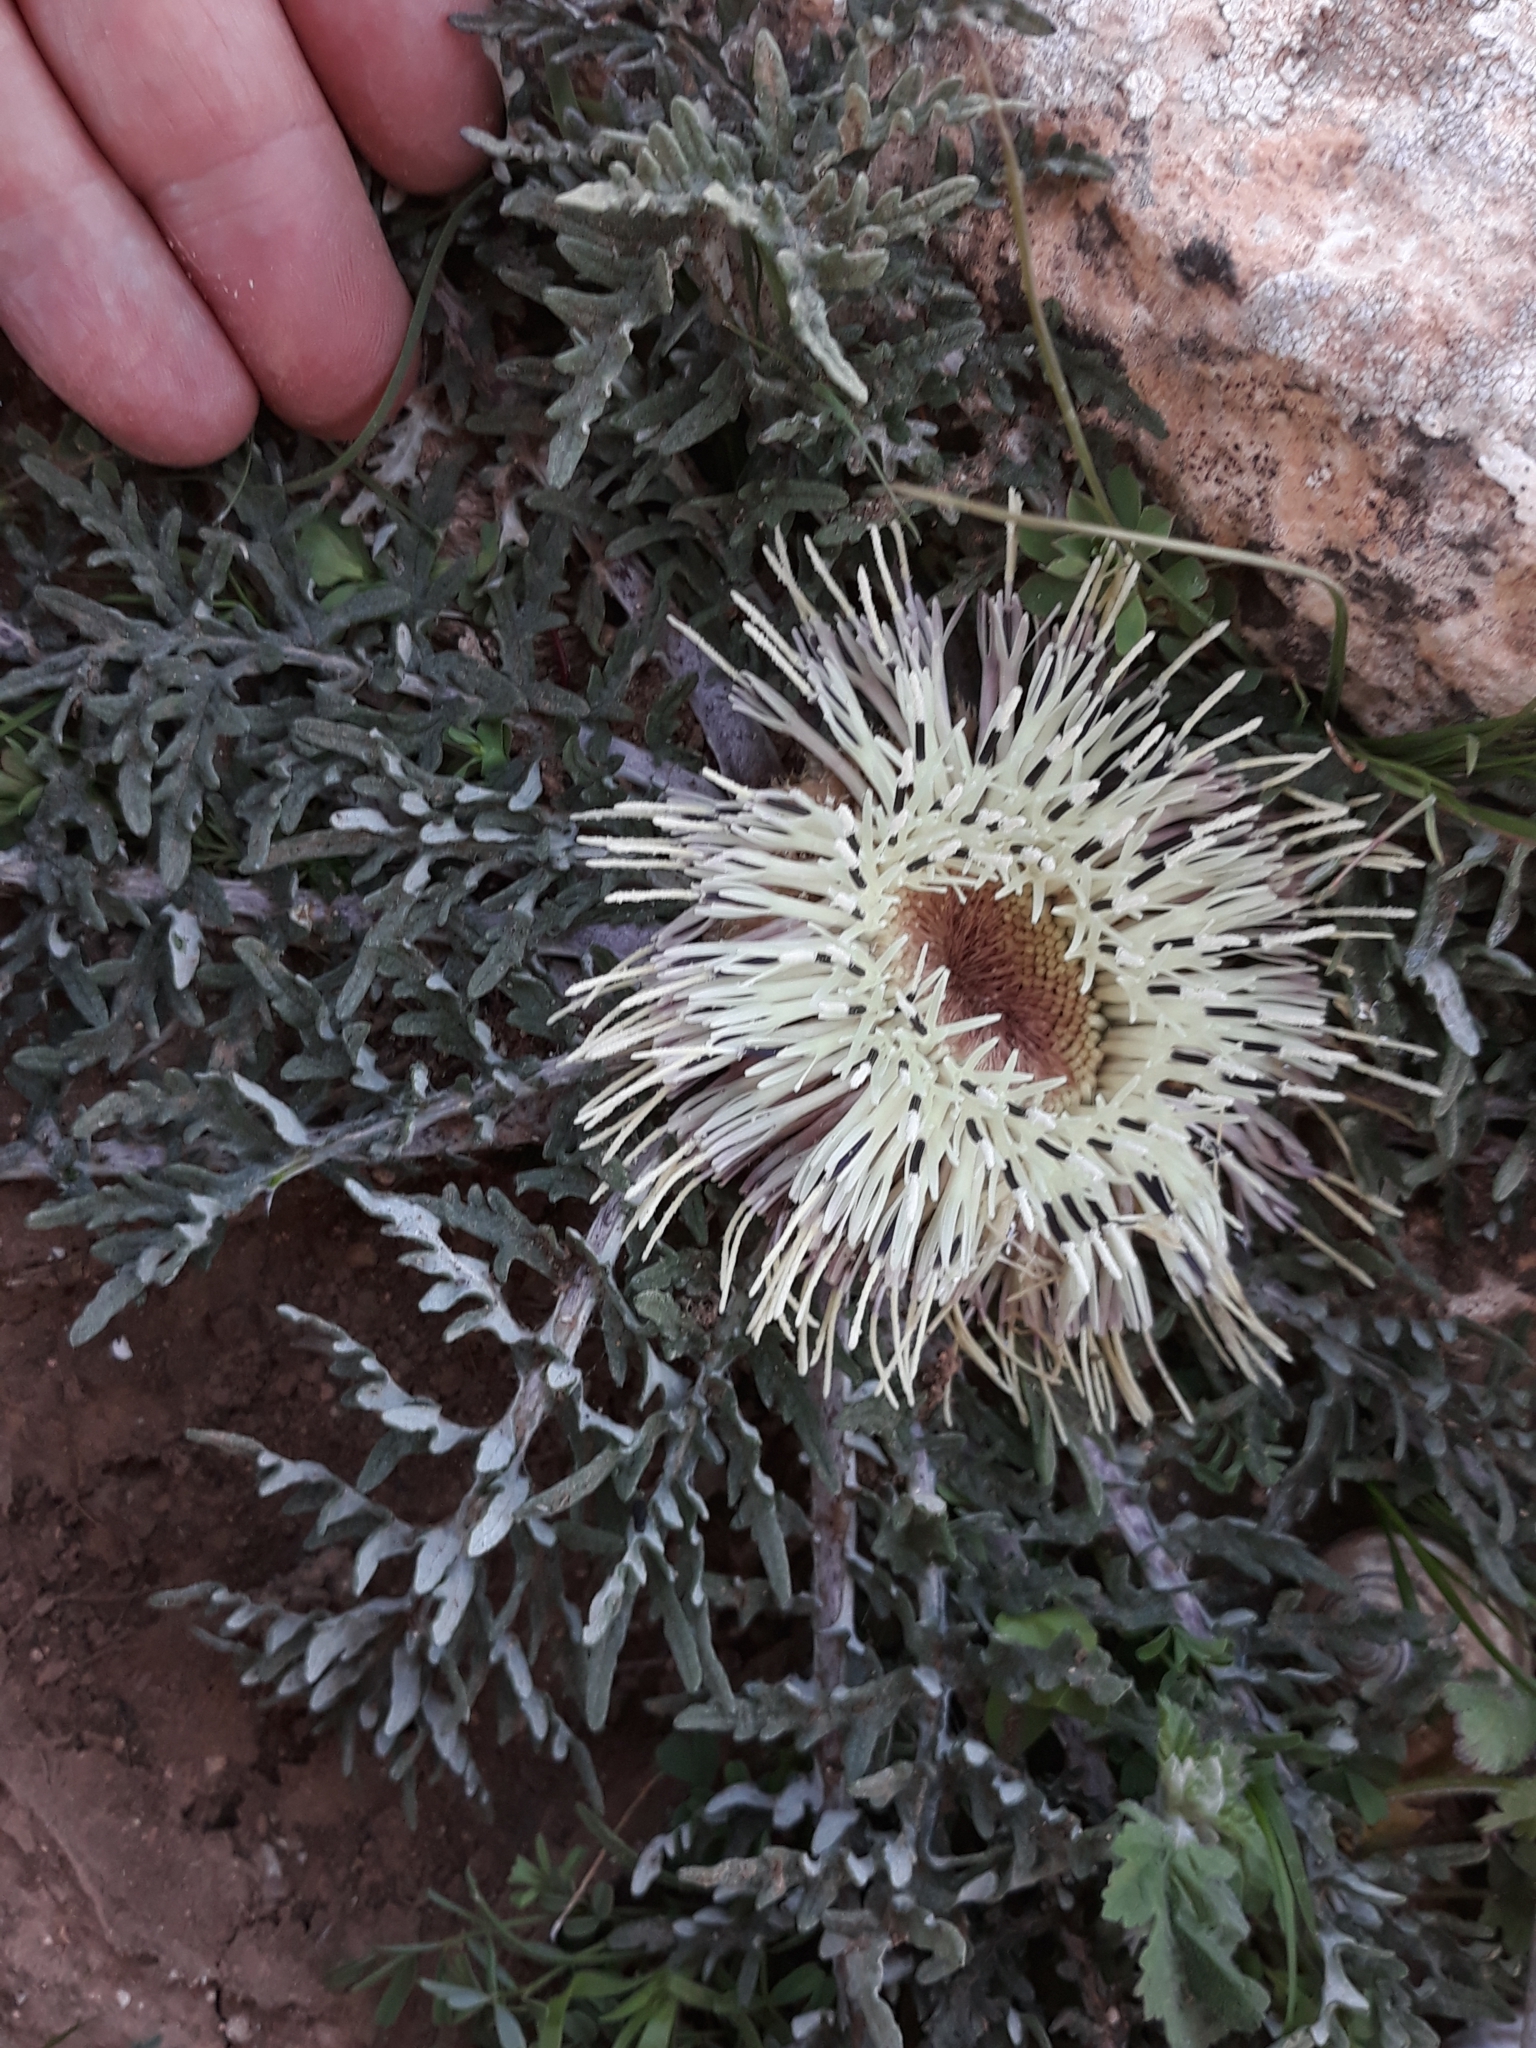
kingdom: Plantae
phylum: Tracheophyta
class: Magnoliopsida
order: Asterales
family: Asteraceae
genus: Leuzea
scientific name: Leuzea acaulis
